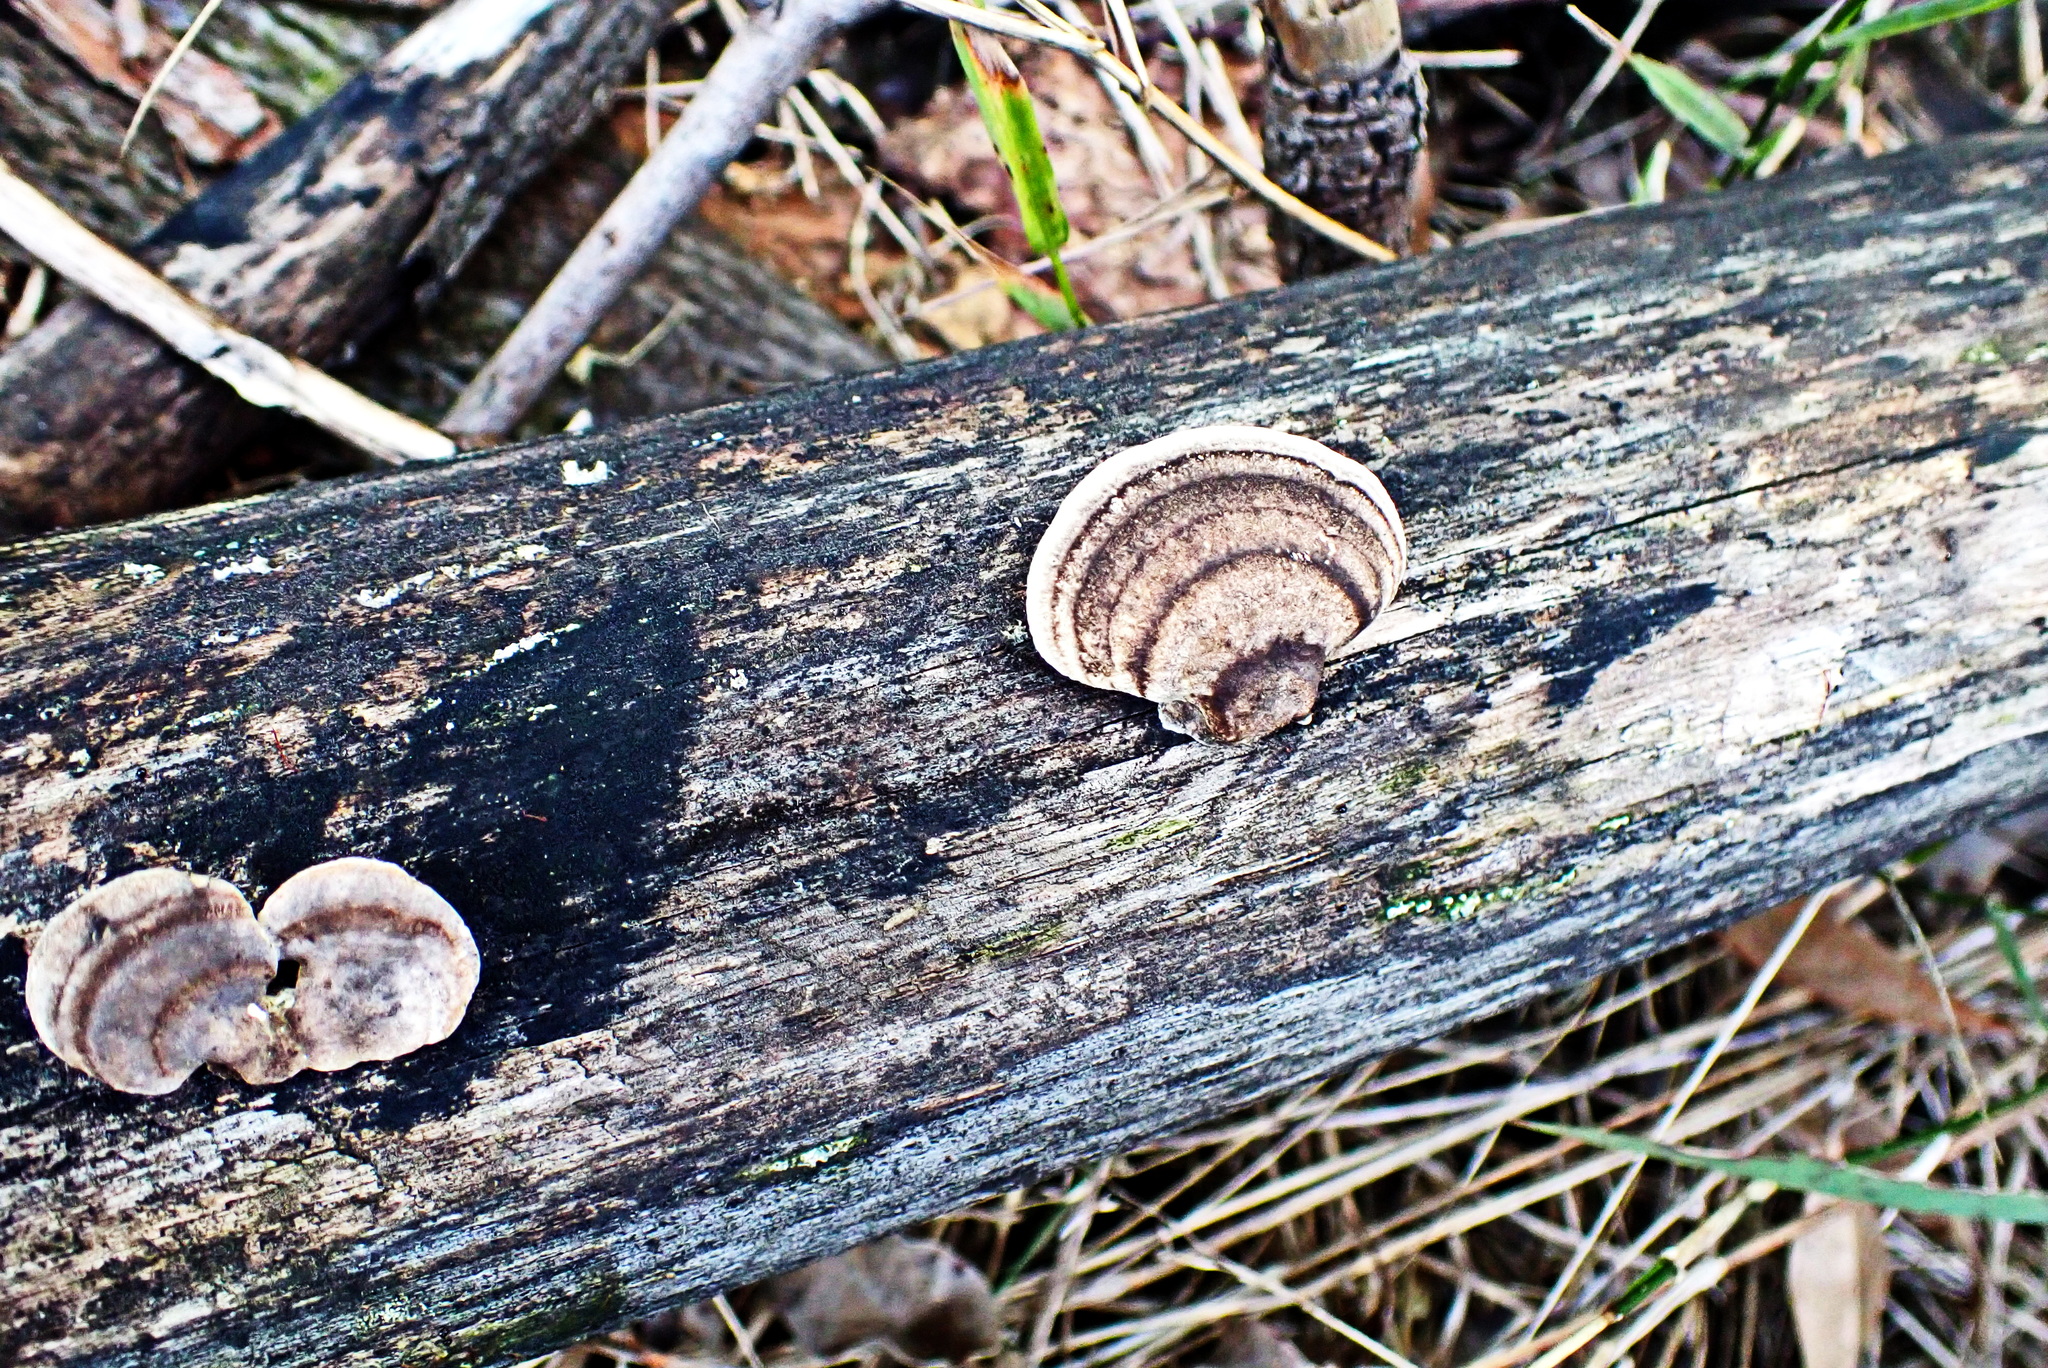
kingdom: Fungi
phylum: Basidiomycota
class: Agaricomycetes
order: Gloeophyllales
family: Gloeophyllaceae
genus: Gloeophyllum
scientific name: Gloeophyllum sepiarium
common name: Conifer mazegill
